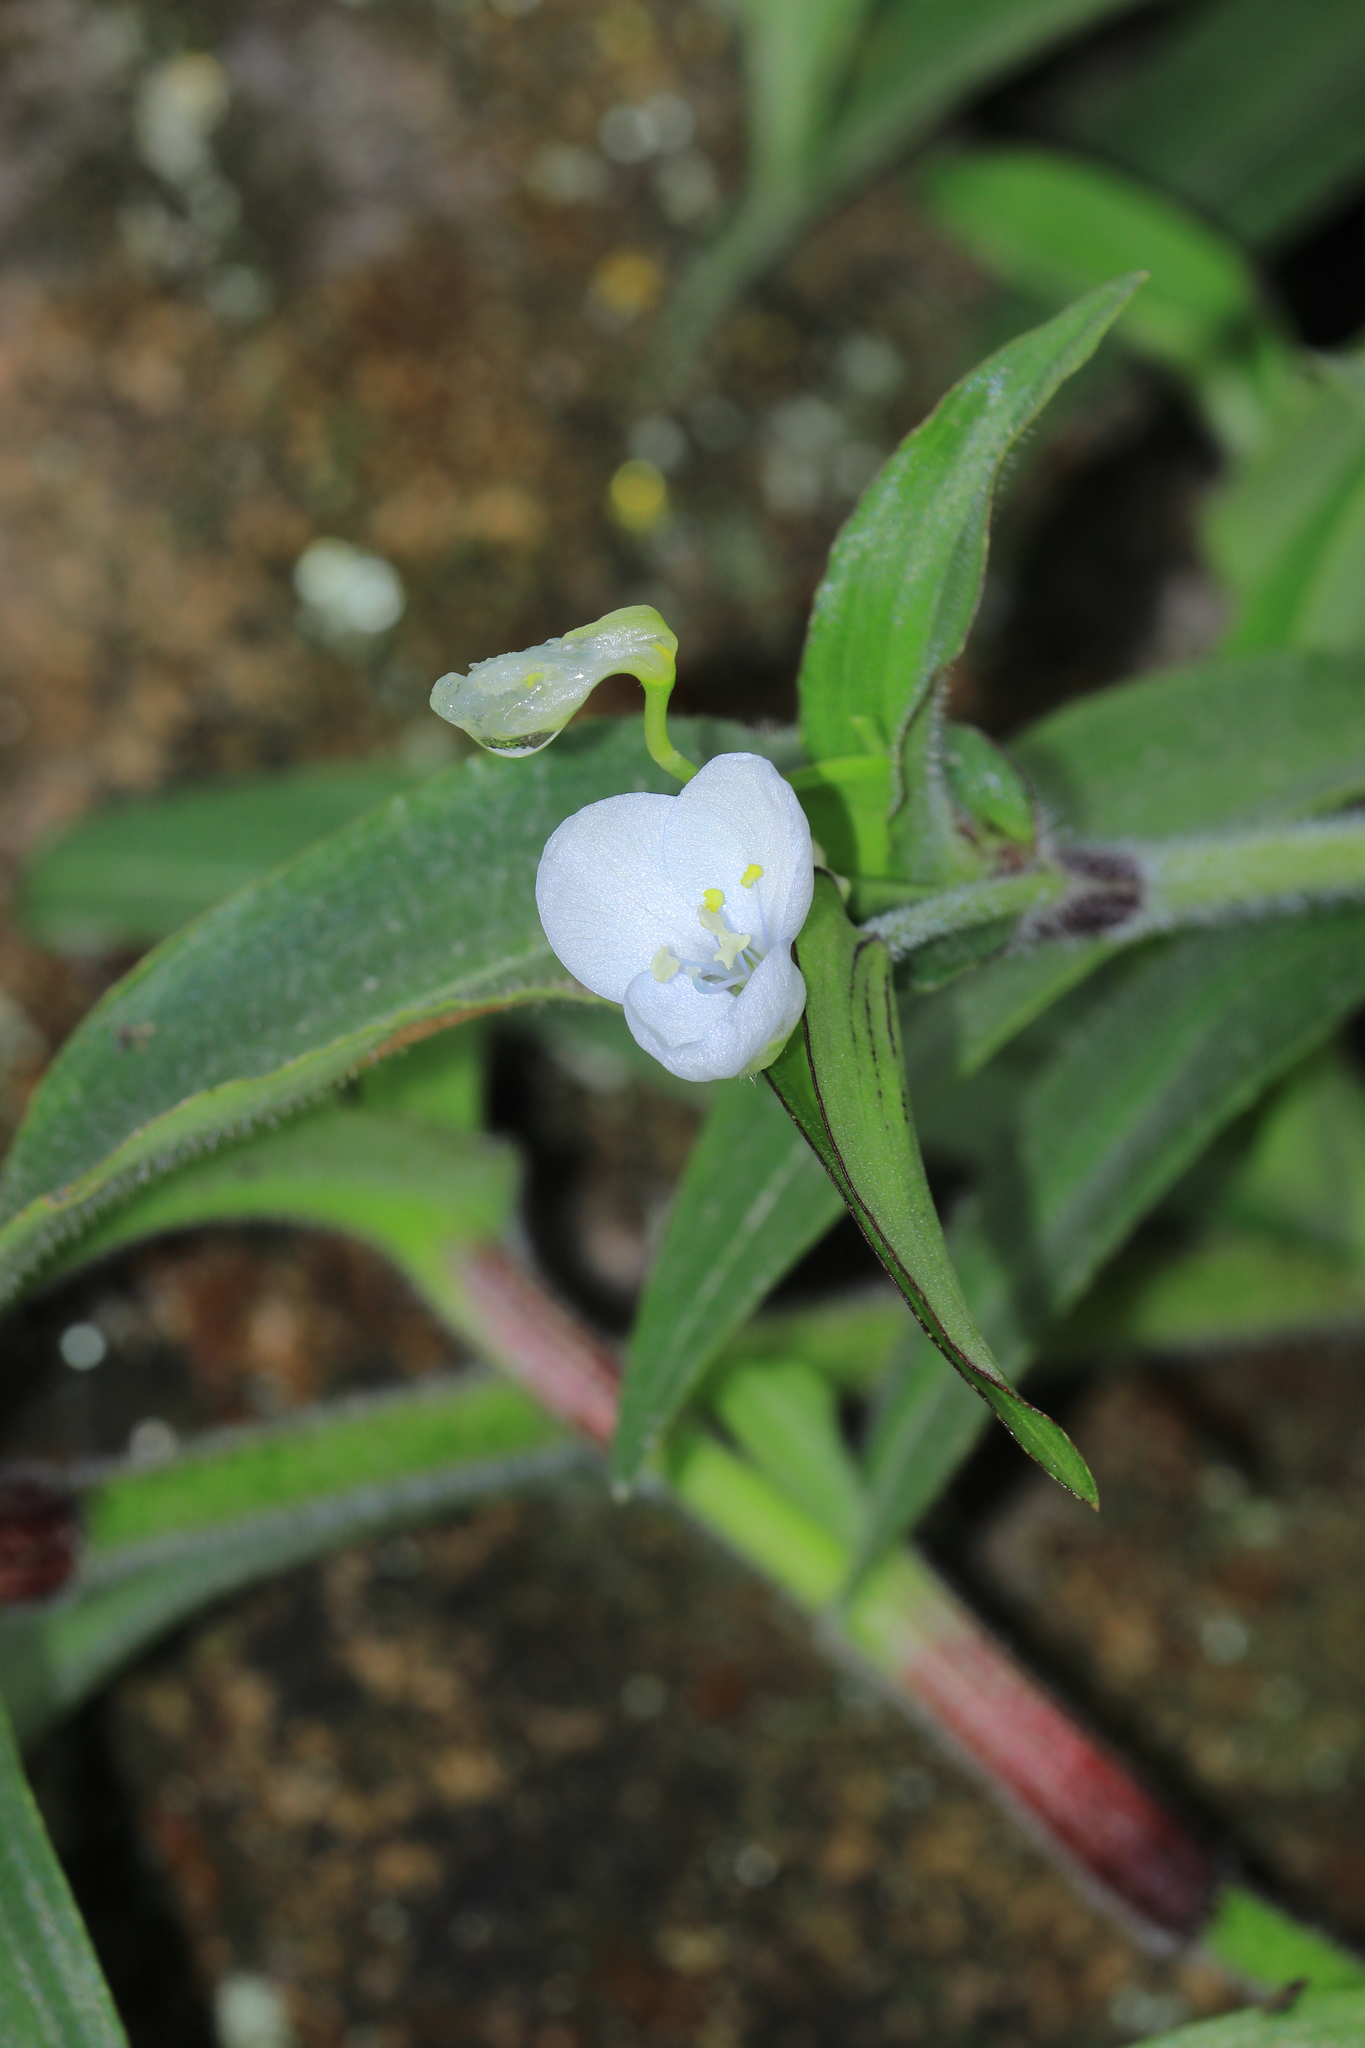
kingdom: Plantae
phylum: Tracheophyta
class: Liliopsida
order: Commelinales
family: Commelinaceae
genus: Commelina
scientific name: Commelina tuberosa
